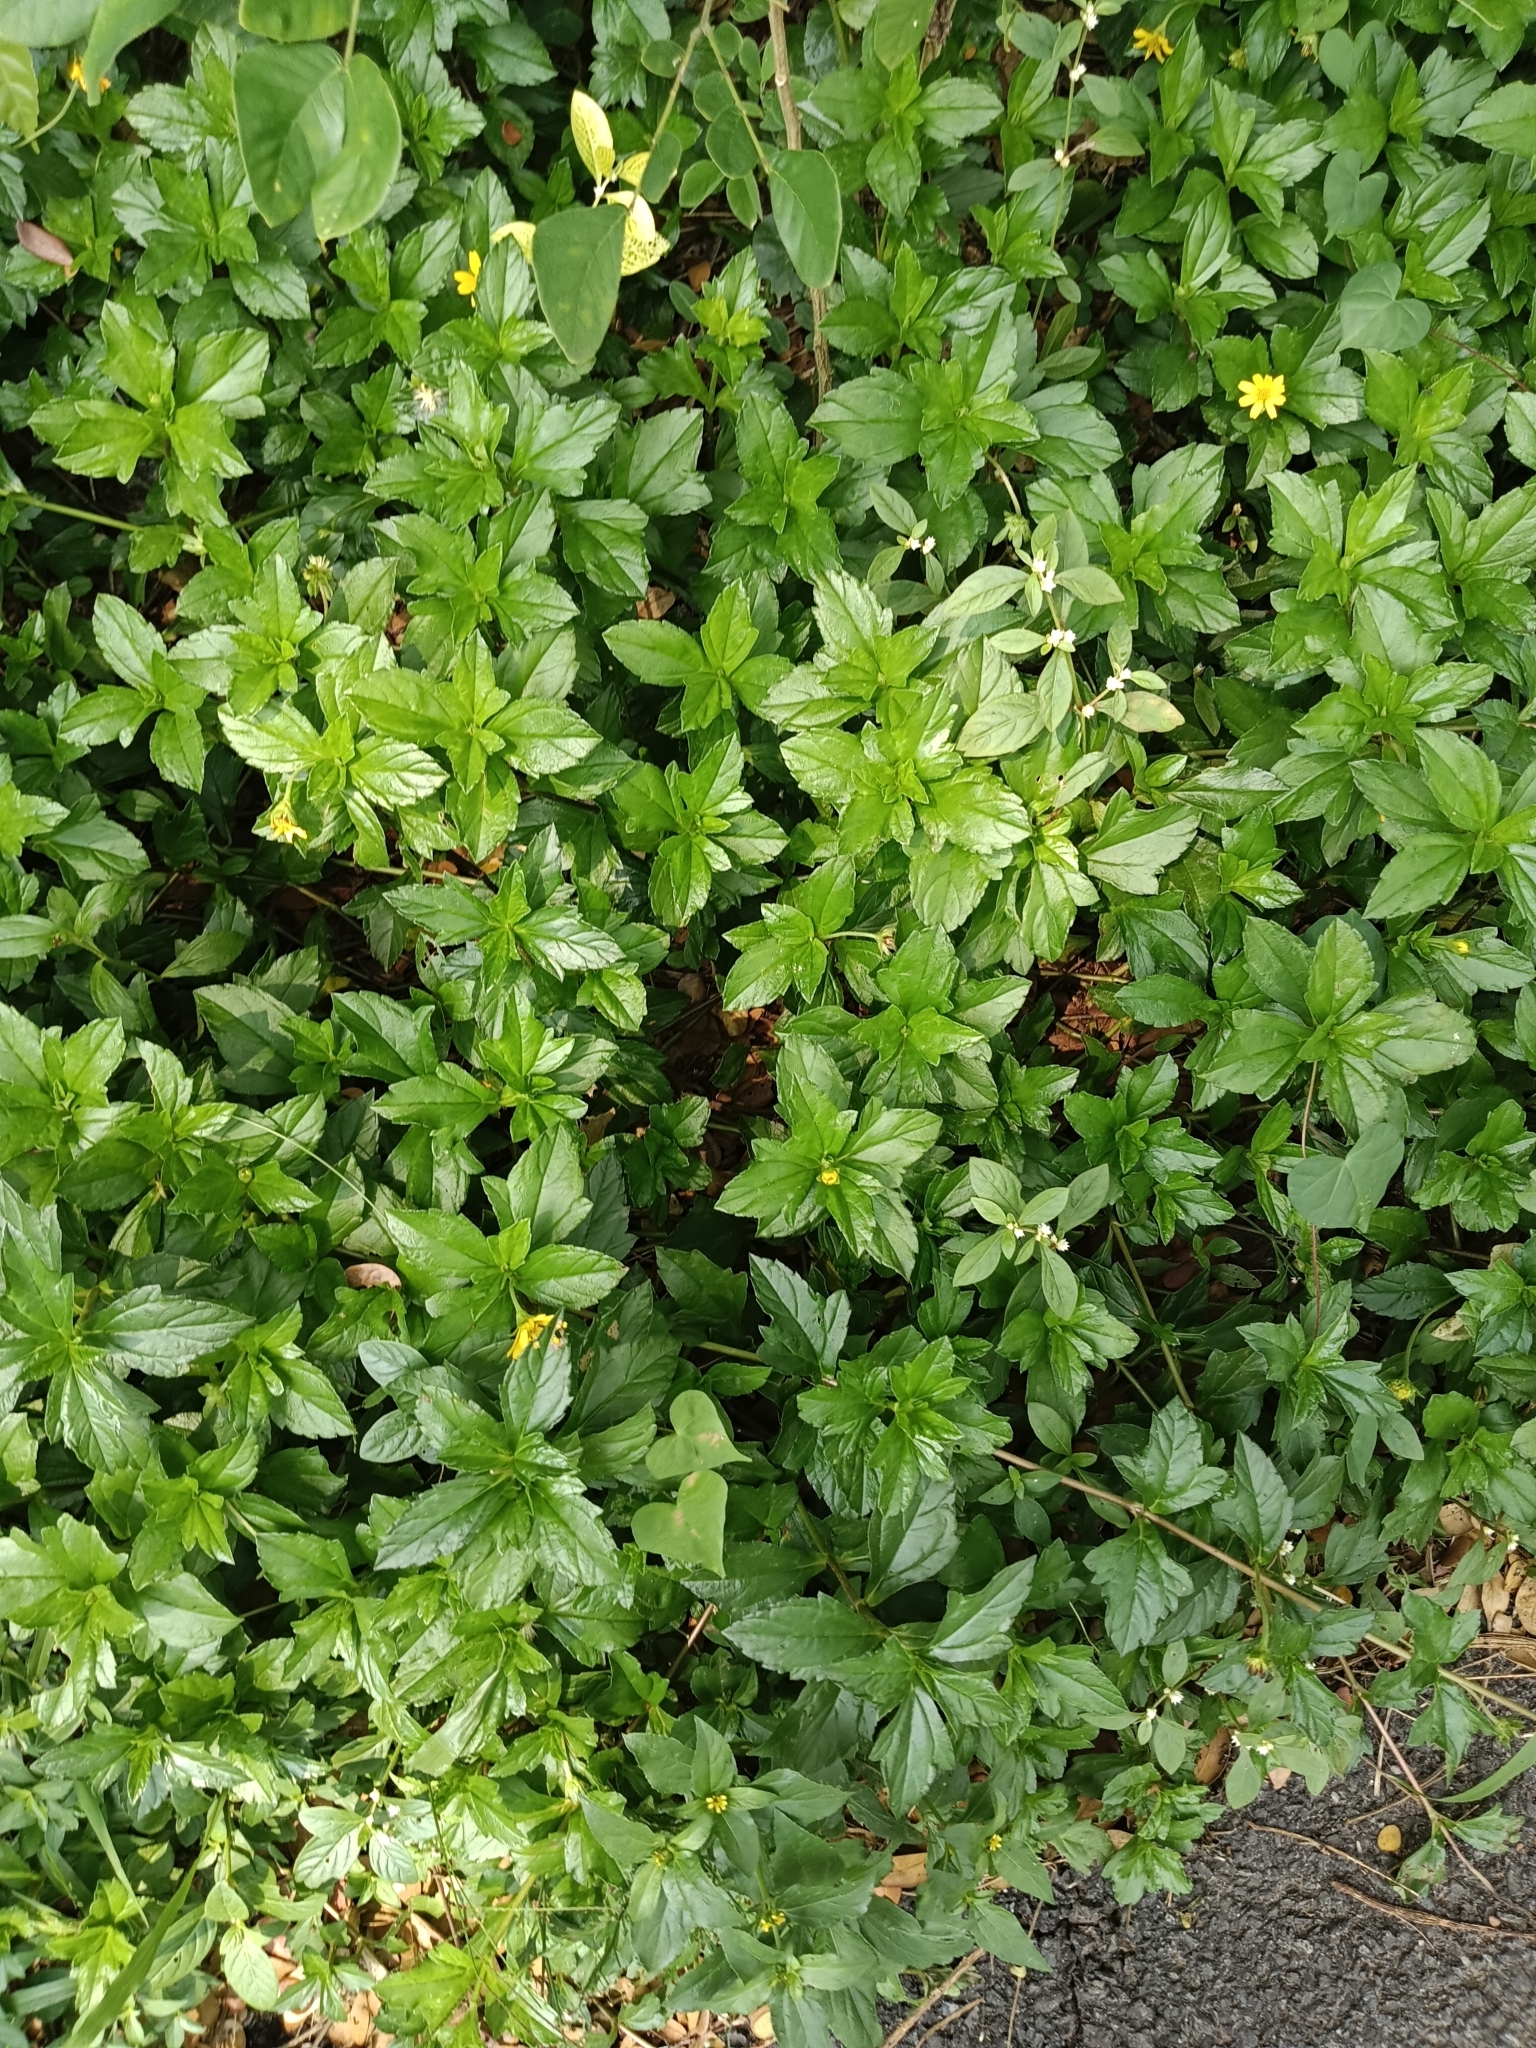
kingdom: Plantae
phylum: Tracheophyta
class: Magnoliopsida
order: Asterales
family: Asteraceae
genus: Sphagneticola
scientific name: Sphagneticola trilobata
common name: Bay biscayne creeping-oxeye
